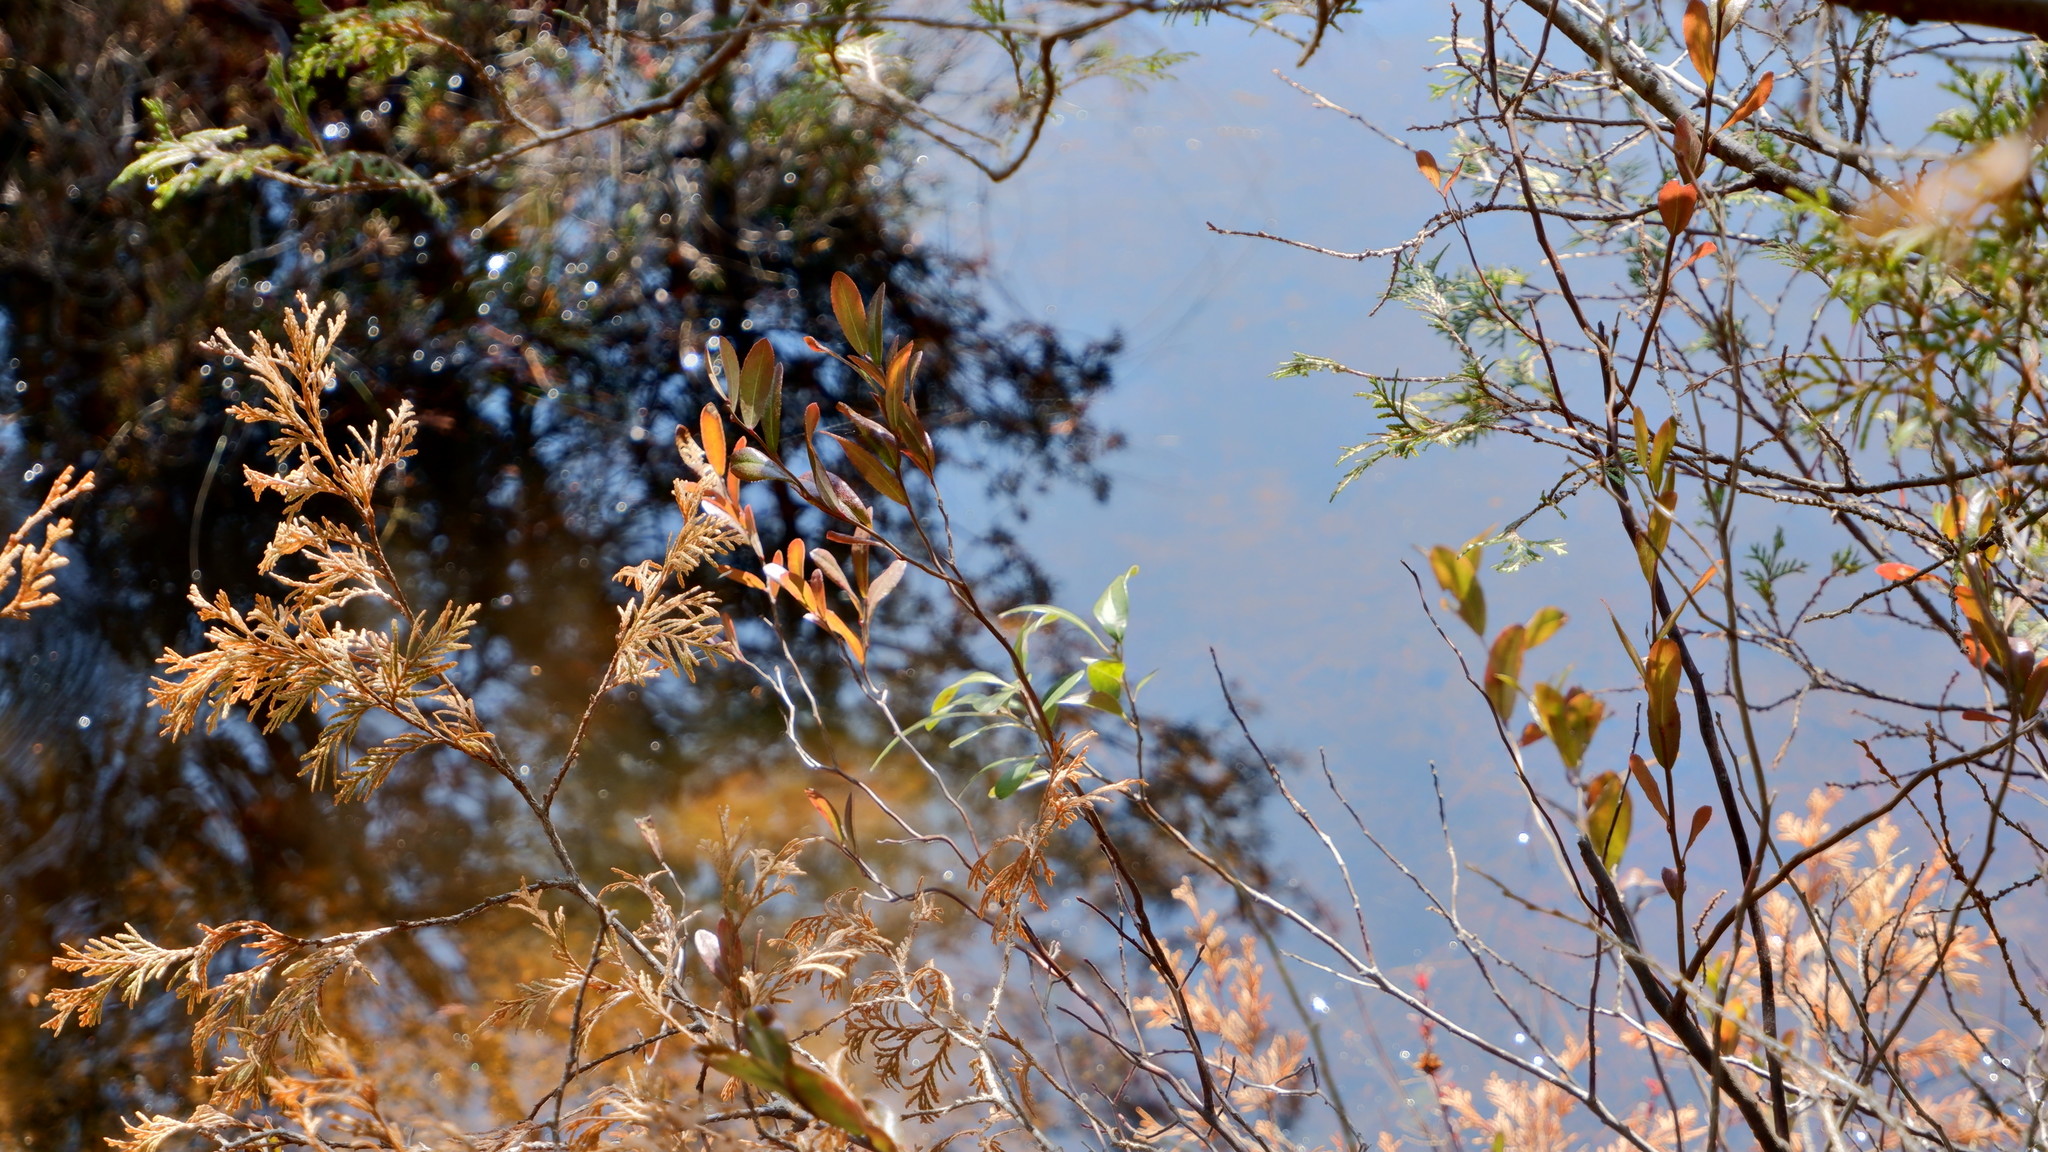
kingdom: Plantae
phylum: Tracheophyta
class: Magnoliopsida
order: Ericales
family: Ericaceae
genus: Chamaedaphne
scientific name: Chamaedaphne calyculata
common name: Leatherleaf
